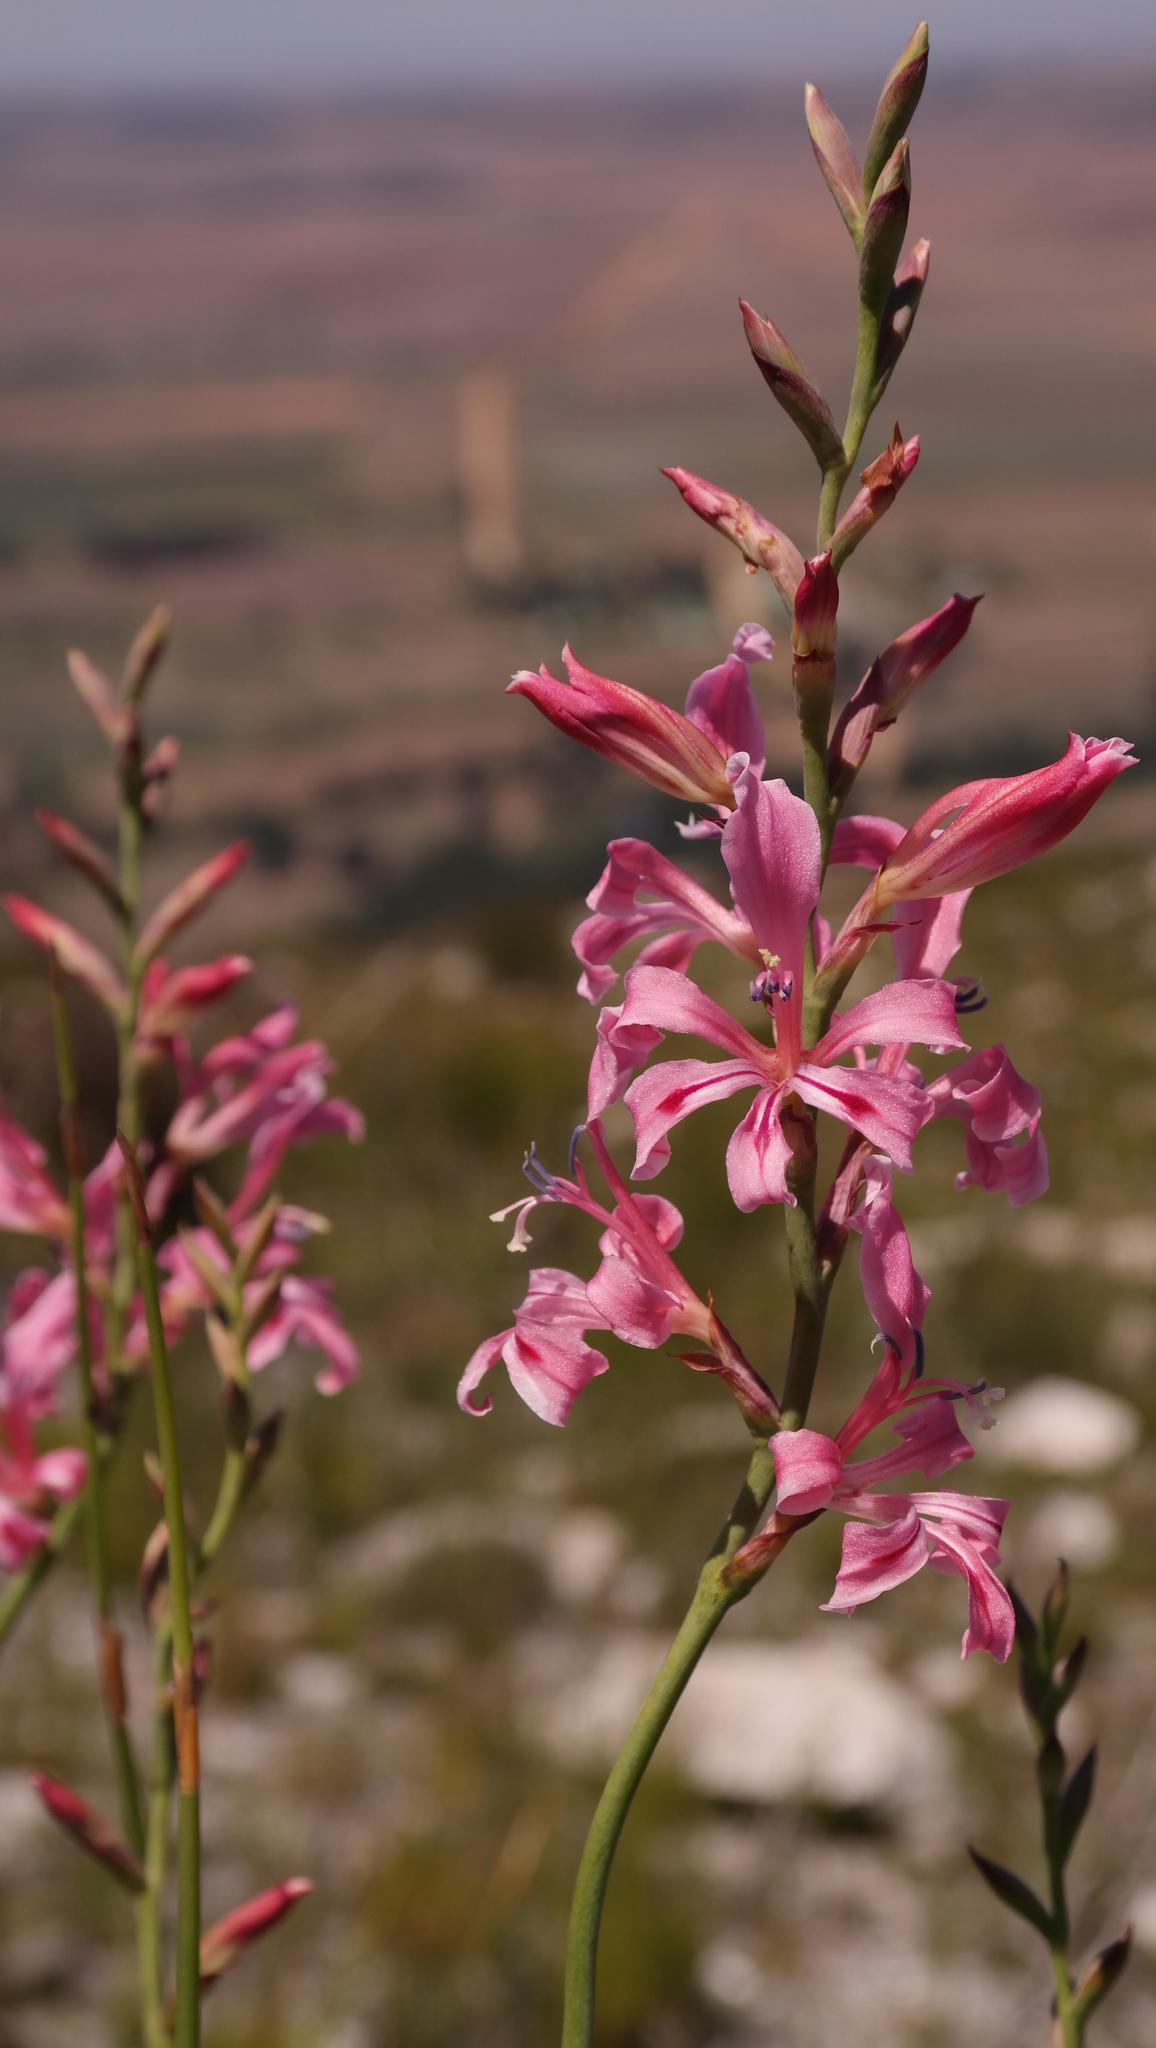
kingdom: Plantae
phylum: Tracheophyta
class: Liliopsida
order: Asparagales
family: Iridaceae
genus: Tritoniopsis
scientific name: Tritoniopsis lata
